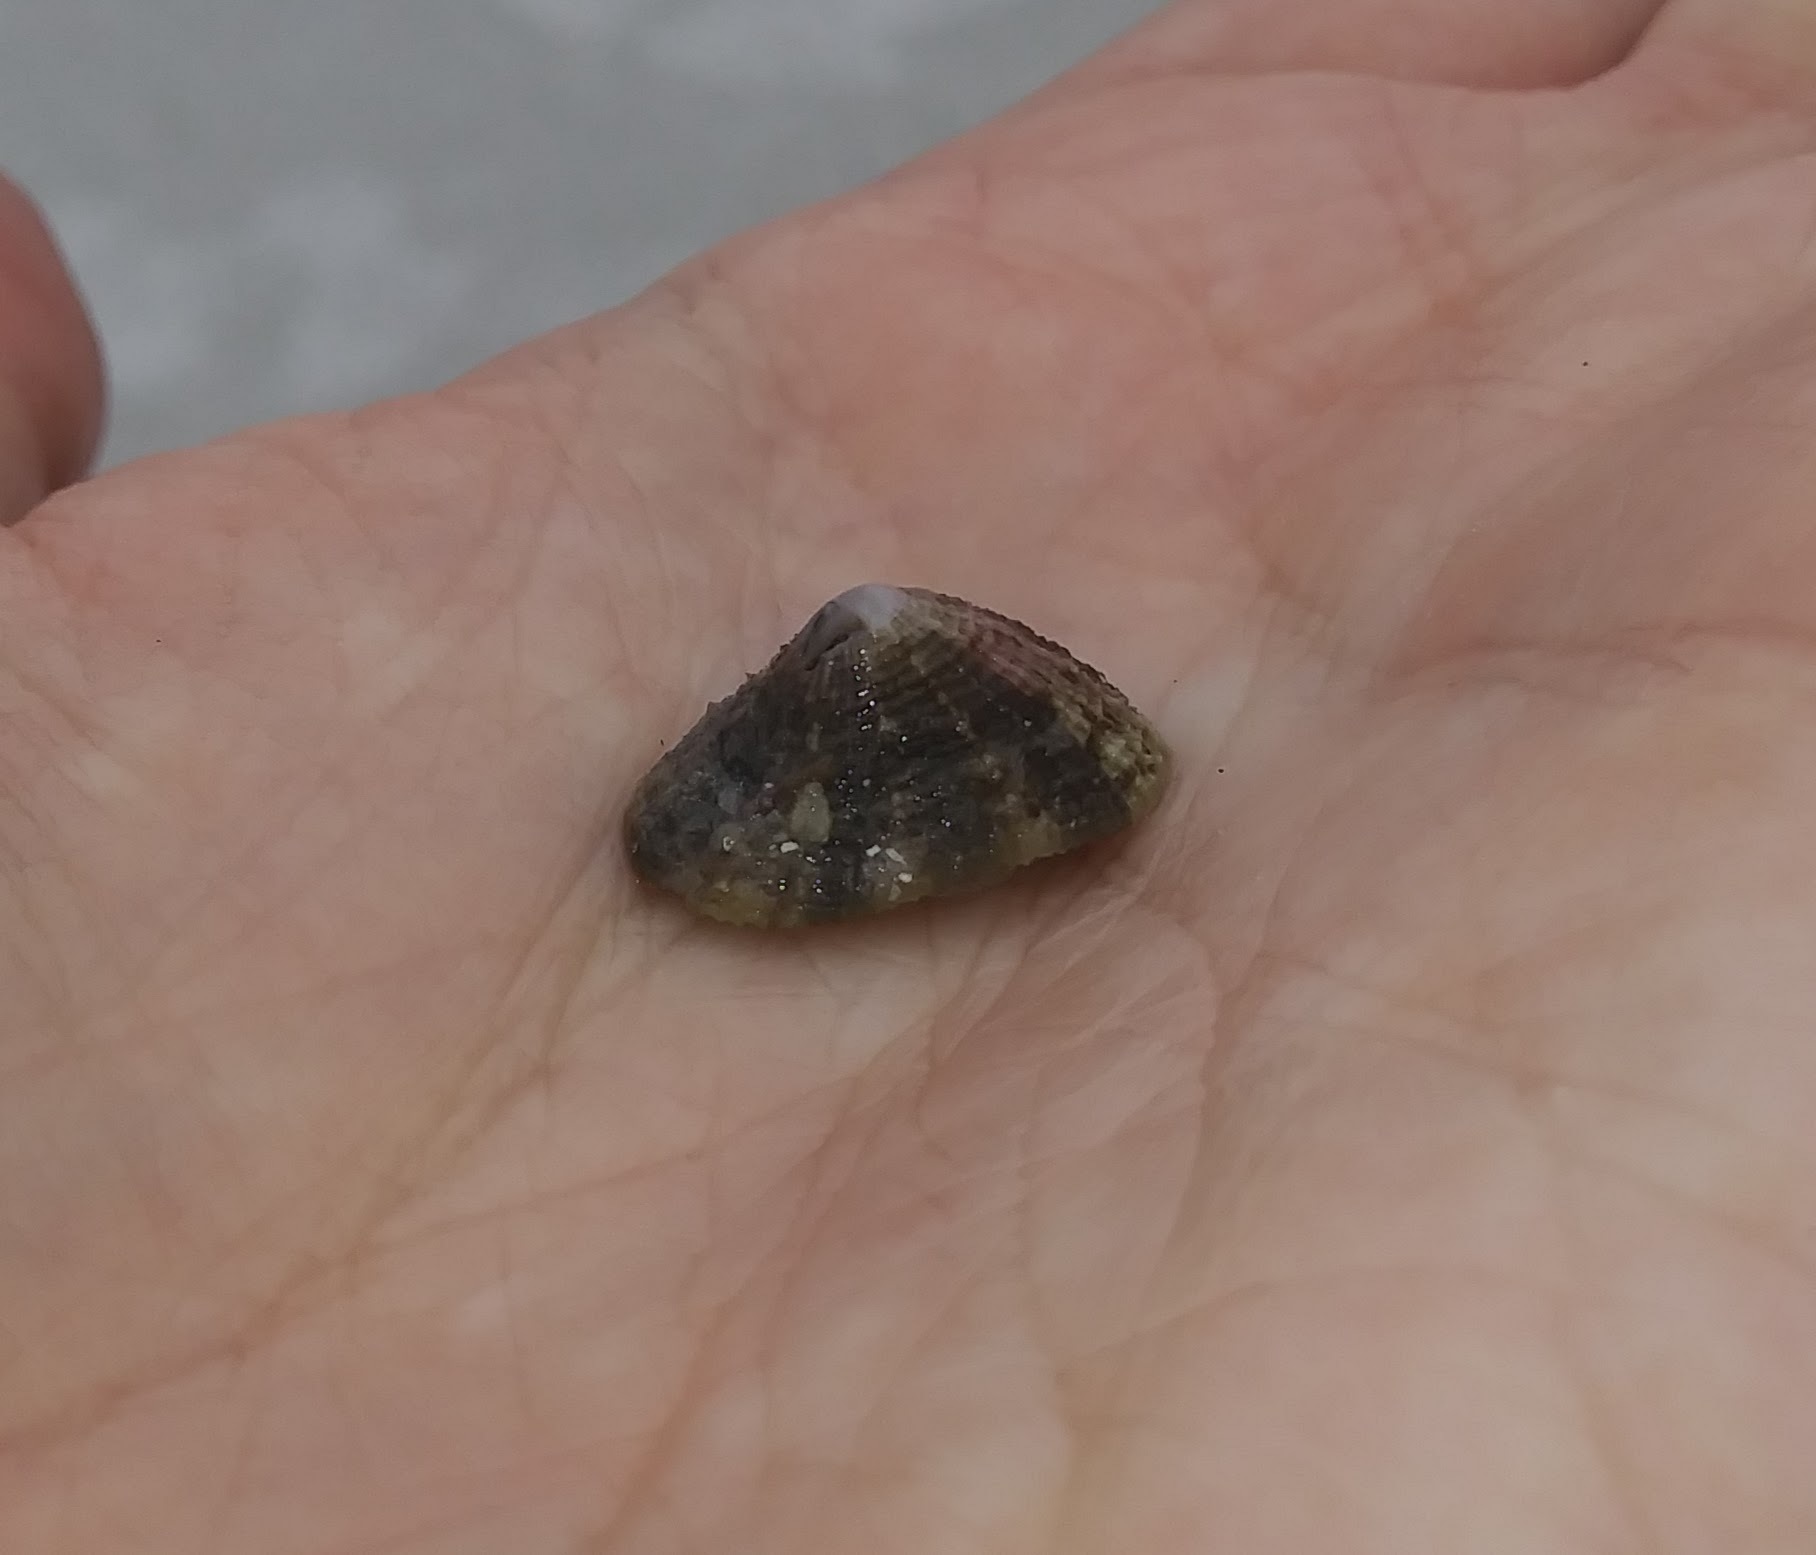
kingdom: Animalia
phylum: Mollusca
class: Gastropoda
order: Lepetellida
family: Fissurellidae
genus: Diodora
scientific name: Diodora cayenensis
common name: Cayenne keyhole limpet
